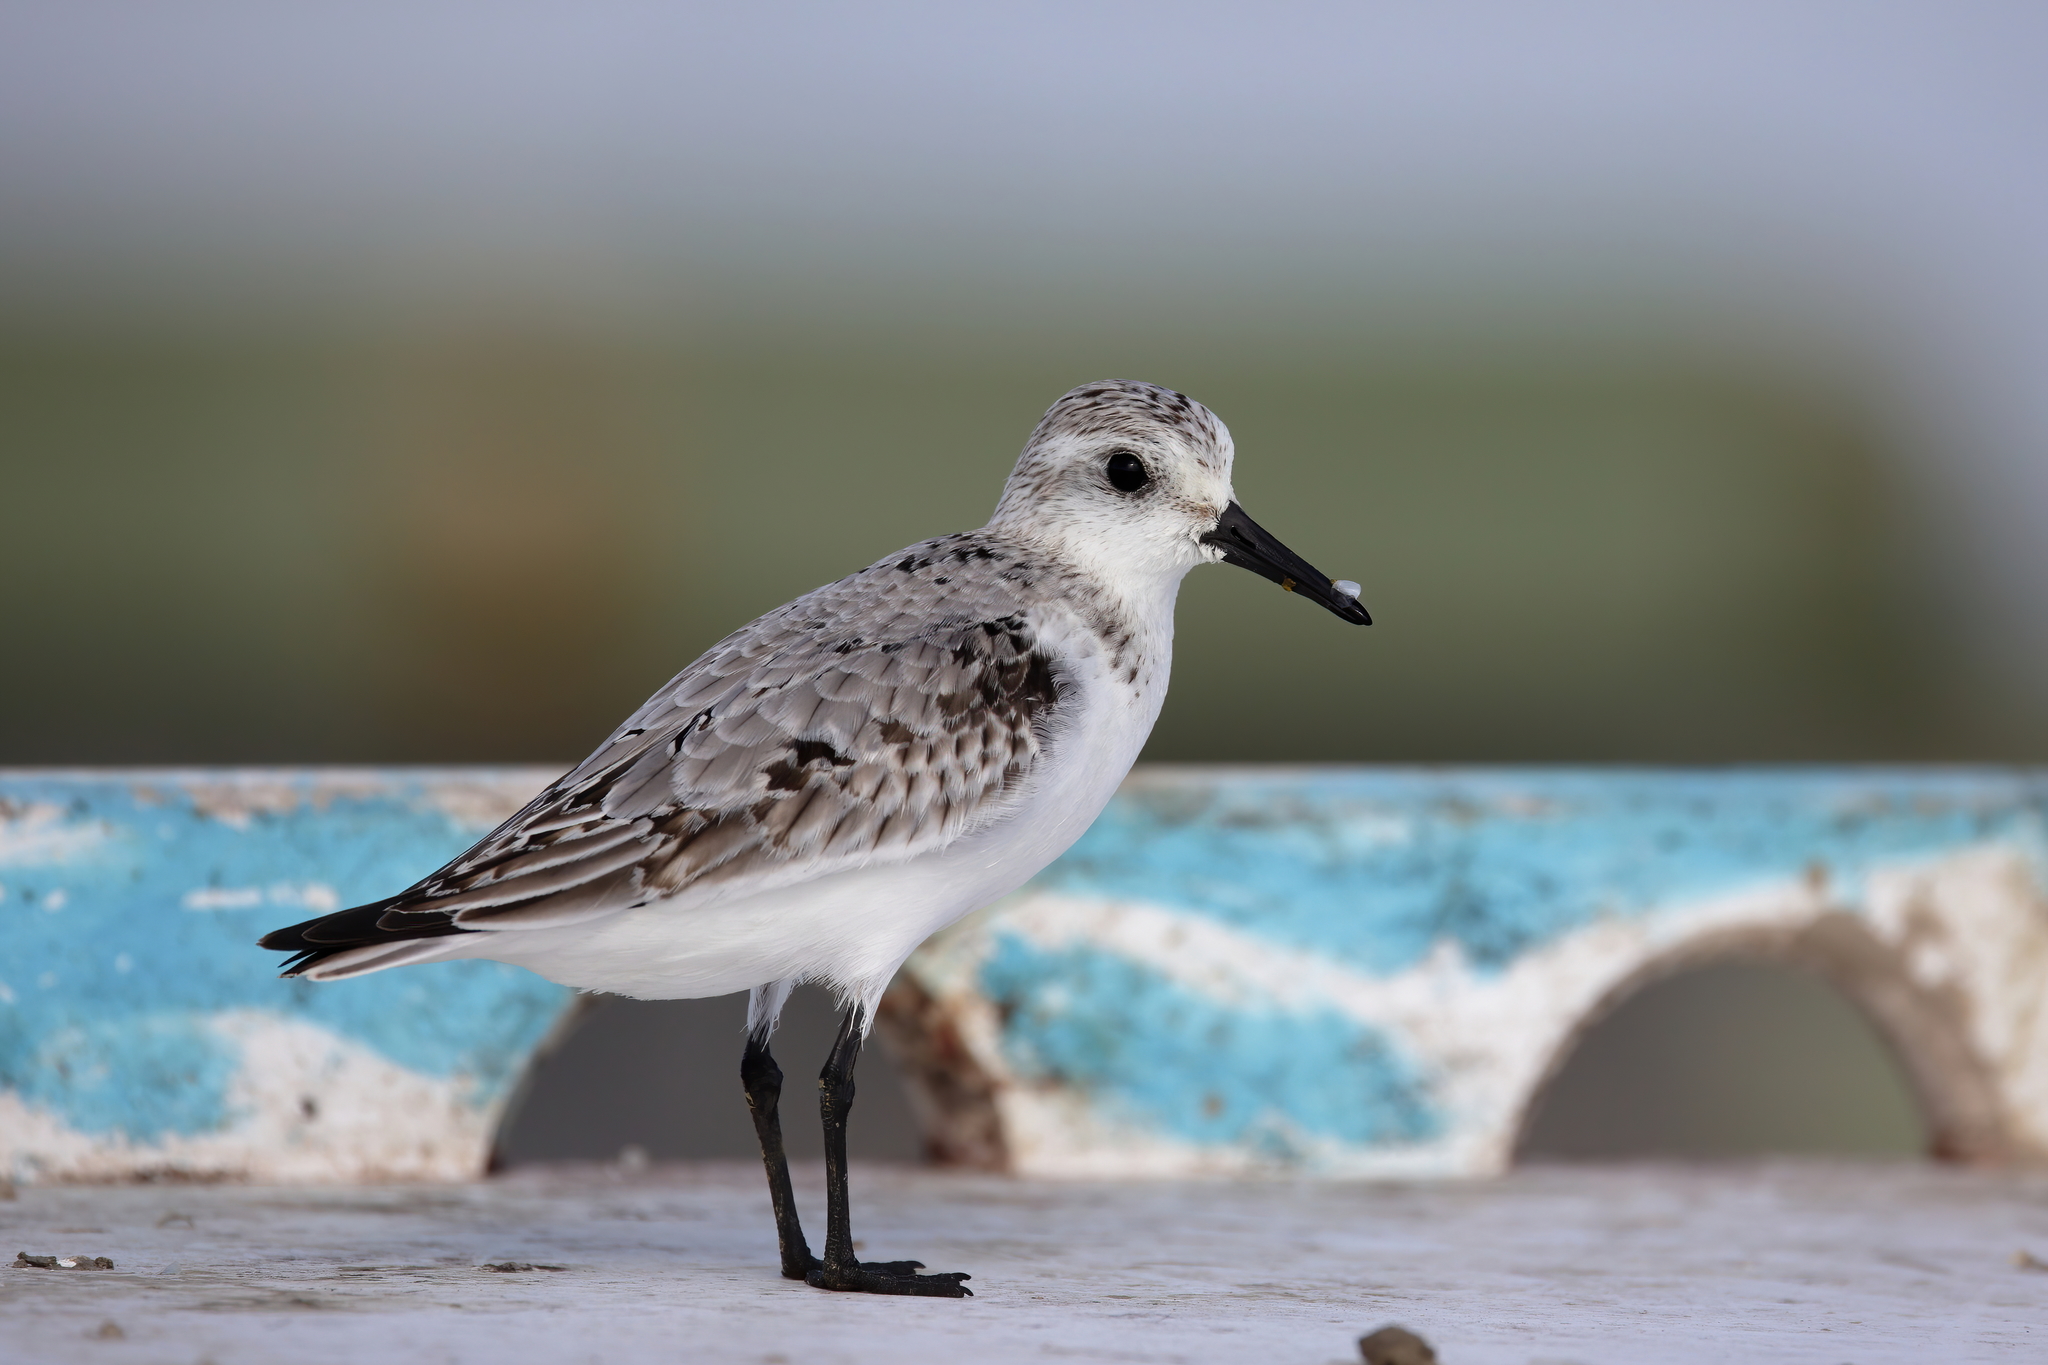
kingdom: Animalia
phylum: Chordata
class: Aves
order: Charadriiformes
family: Scolopacidae
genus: Calidris
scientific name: Calidris alba
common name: Sanderling
